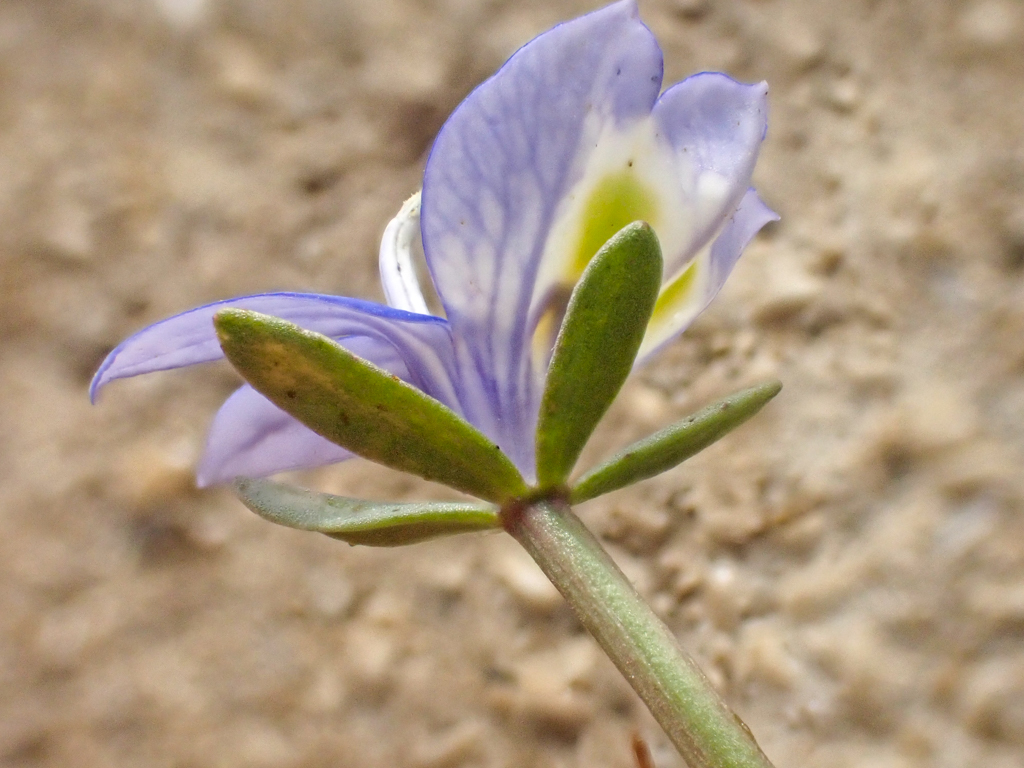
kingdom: Plantae
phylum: Tracheophyta
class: Magnoliopsida
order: Asterales
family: Campanulaceae
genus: Downingia
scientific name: Downingia insignis
